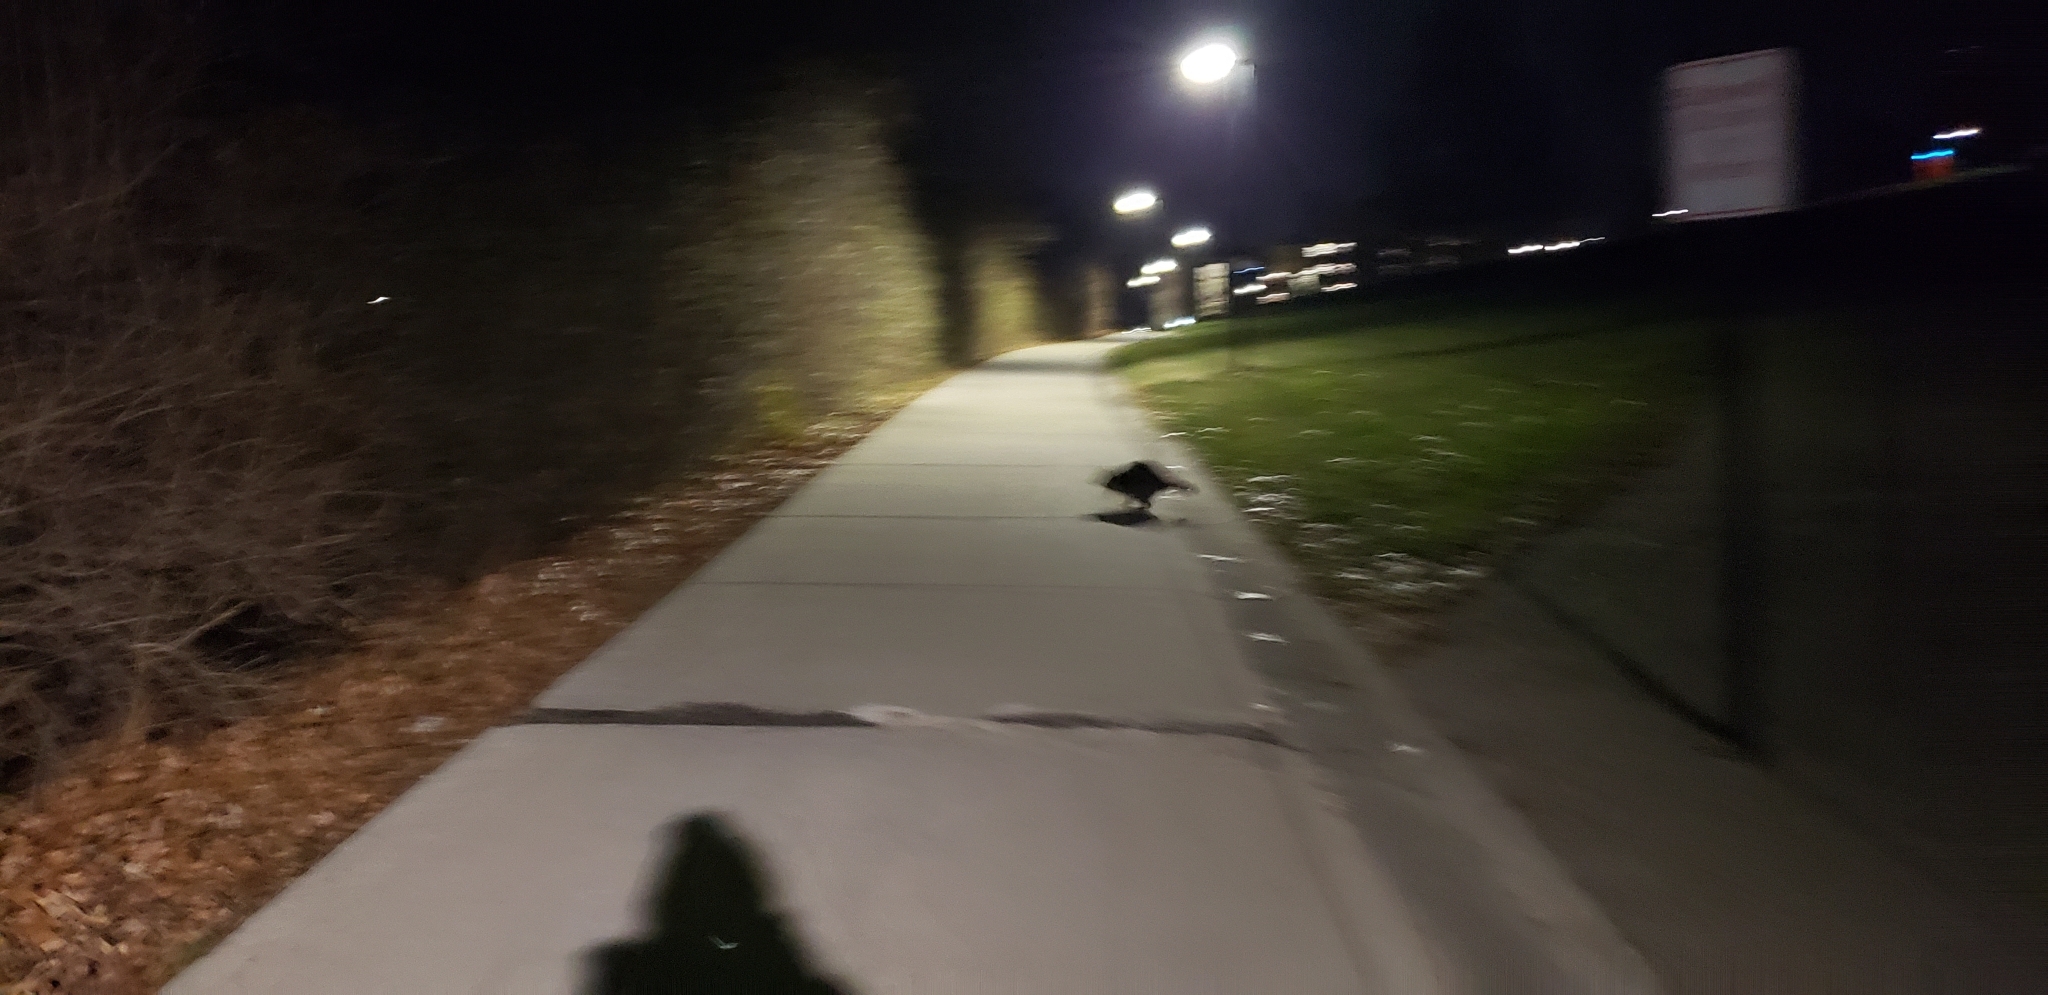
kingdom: Animalia
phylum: Chordata
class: Mammalia
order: Carnivora
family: Procyonidae
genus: Procyon
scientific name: Procyon lotor
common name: Raccoon
